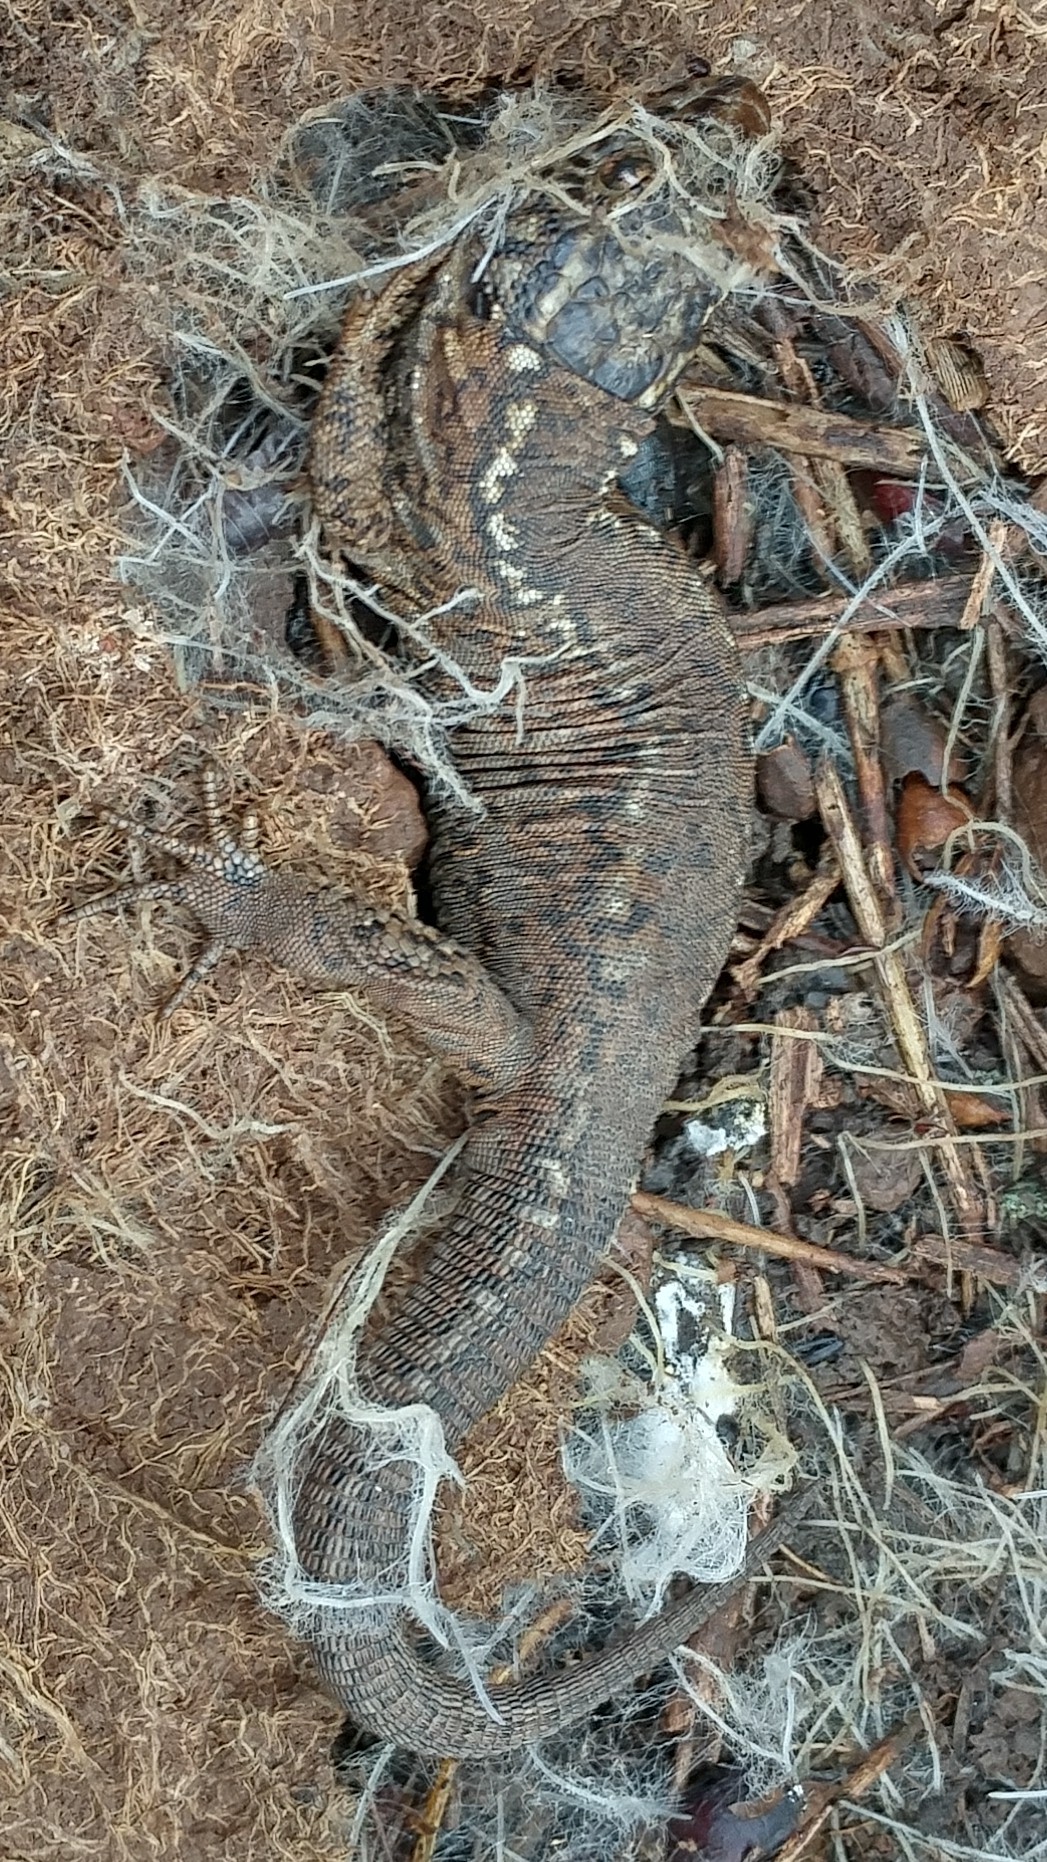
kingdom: Animalia
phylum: Chordata
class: Squamata
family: Xantusiidae
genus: Xantusia
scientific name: Xantusia riversiana
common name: Island night lizard
